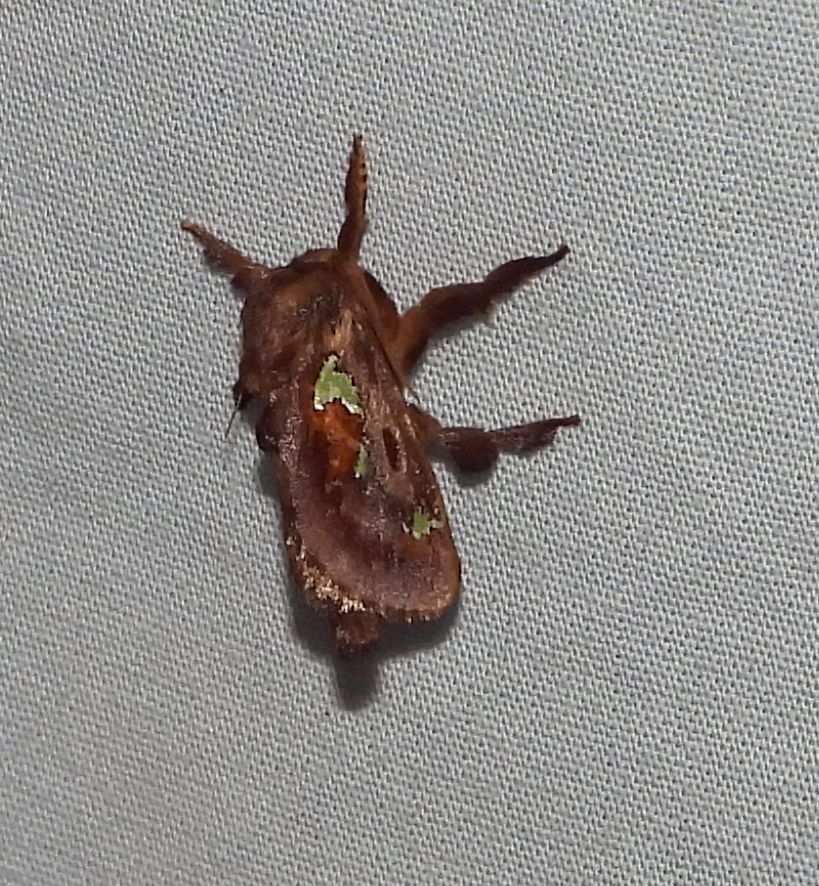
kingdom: Animalia
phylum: Arthropoda
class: Insecta
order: Lepidoptera
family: Limacodidae
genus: Euclea
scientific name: Euclea delphinii
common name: Spiny oak-slug moth
